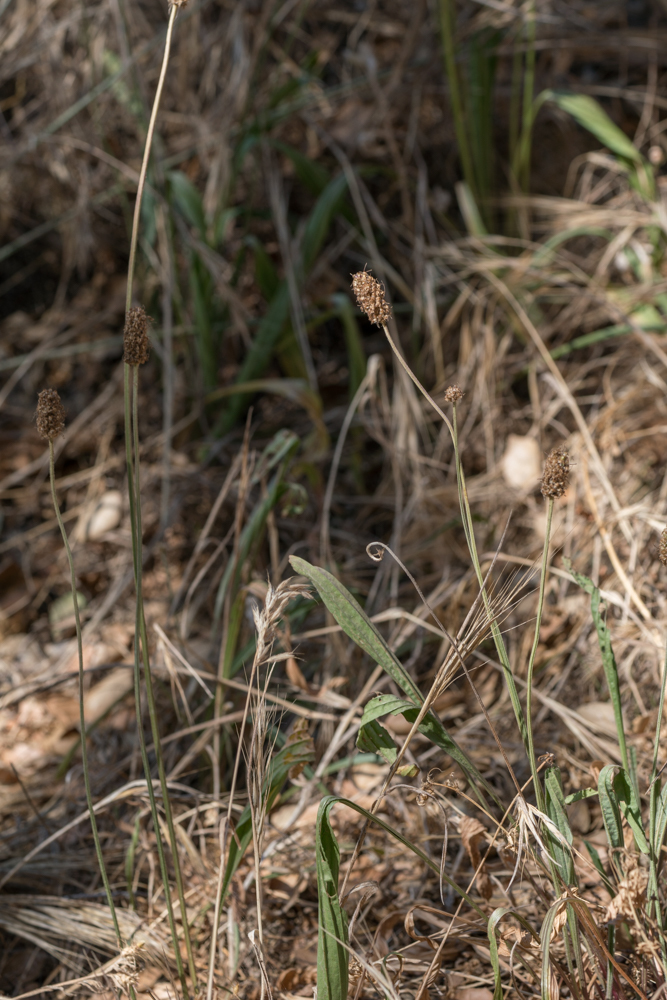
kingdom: Plantae
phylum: Tracheophyta
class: Magnoliopsida
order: Lamiales
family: Plantaginaceae
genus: Plantago
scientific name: Plantago lanceolata
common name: Ribwort plantain
